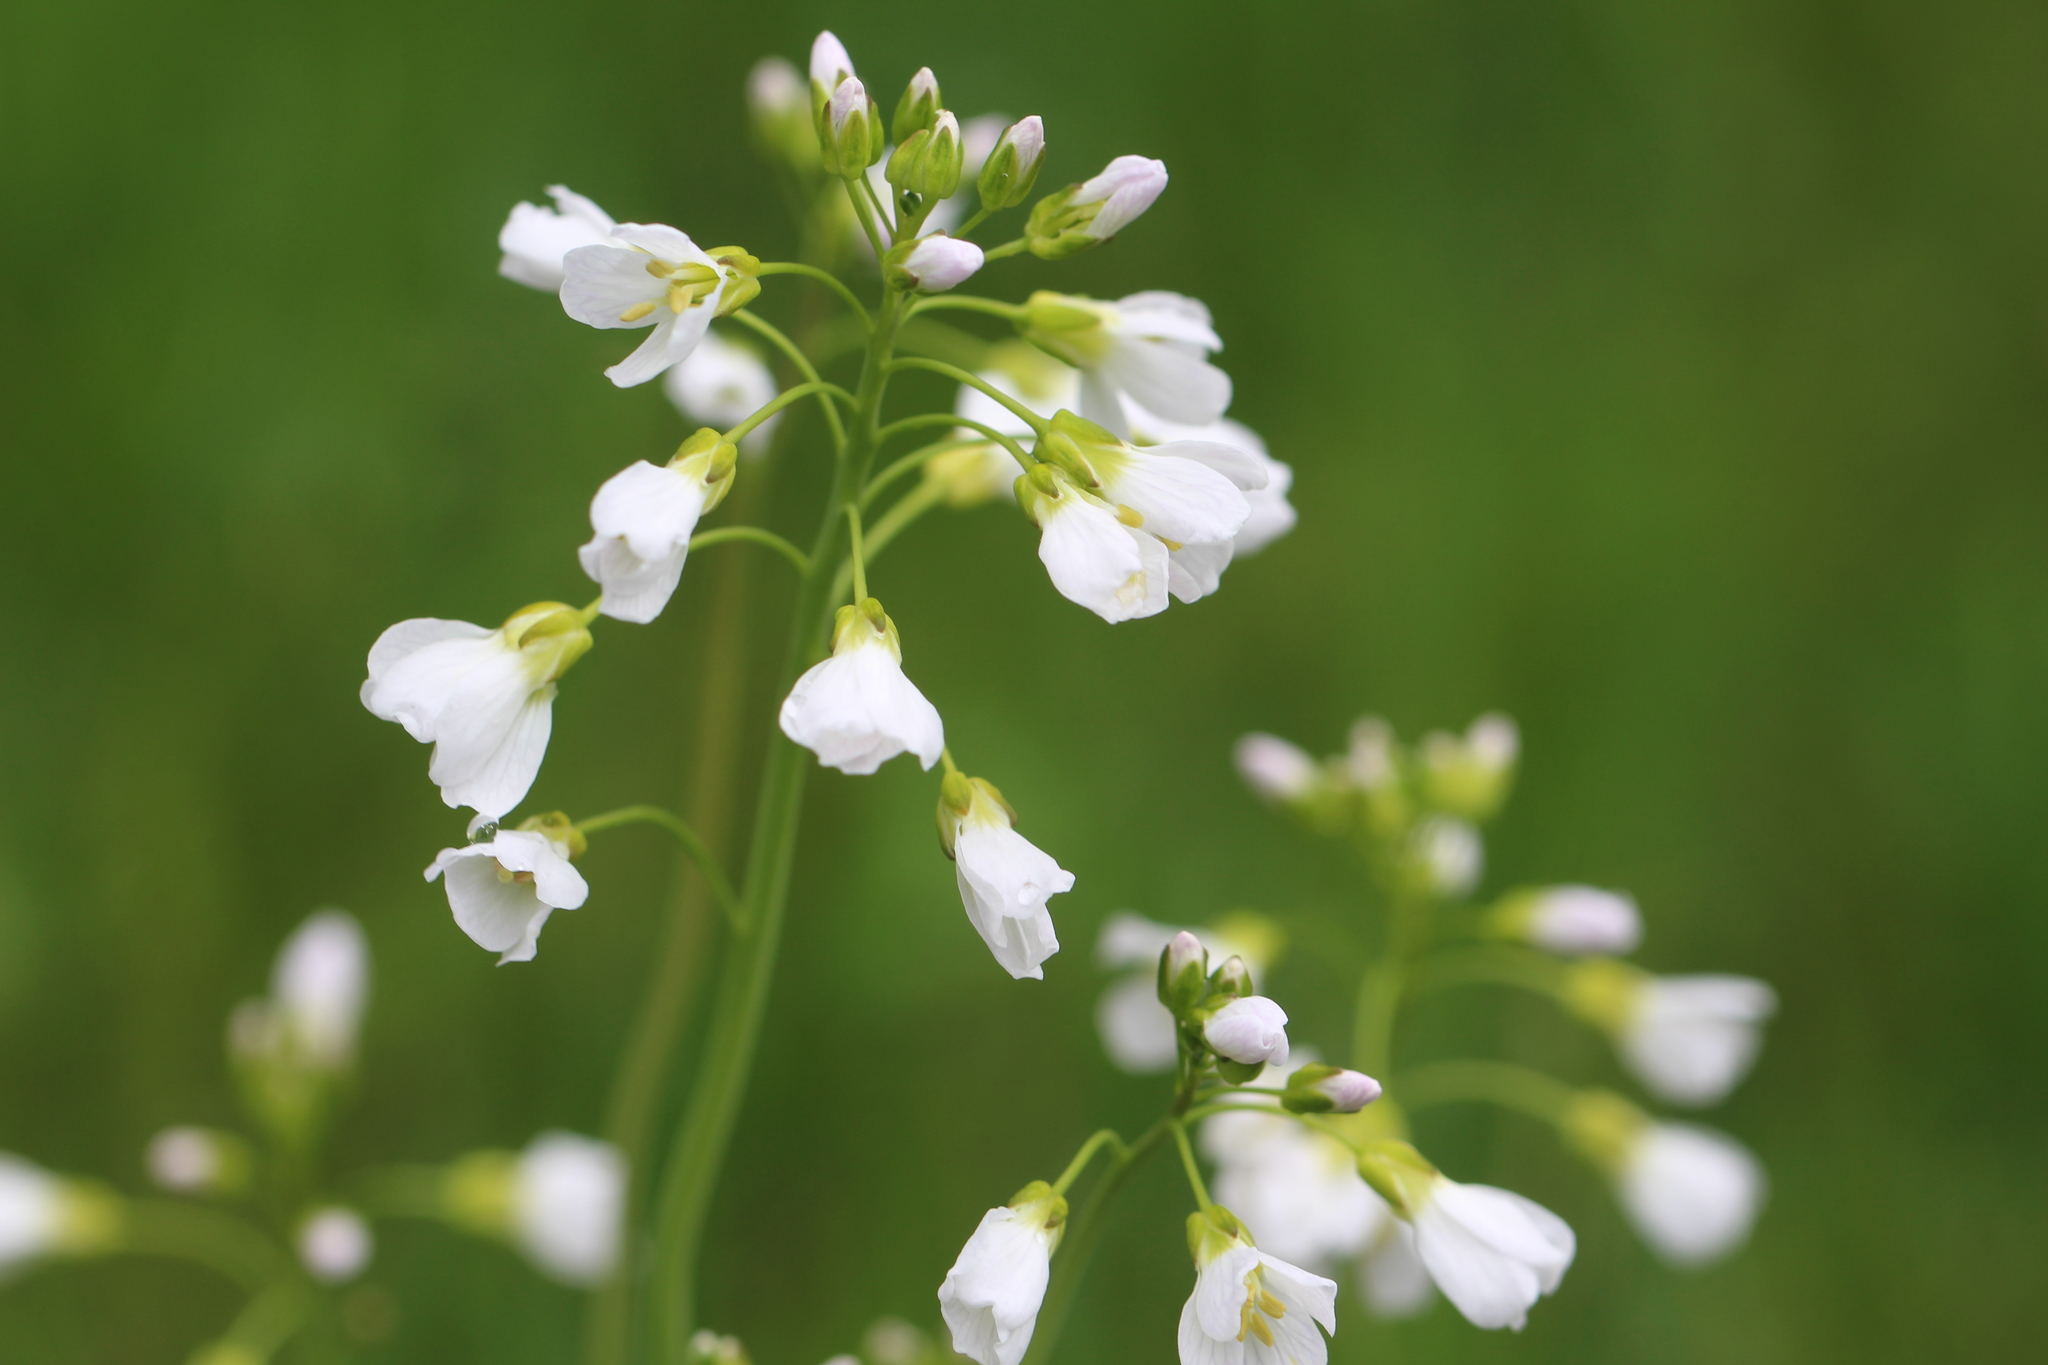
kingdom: Plantae
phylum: Tracheophyta
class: Magnoliopsida
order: Brassicales
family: Brassicaceae
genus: Cardamine
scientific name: Cardamine pratensis
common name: Cuckoo flower
